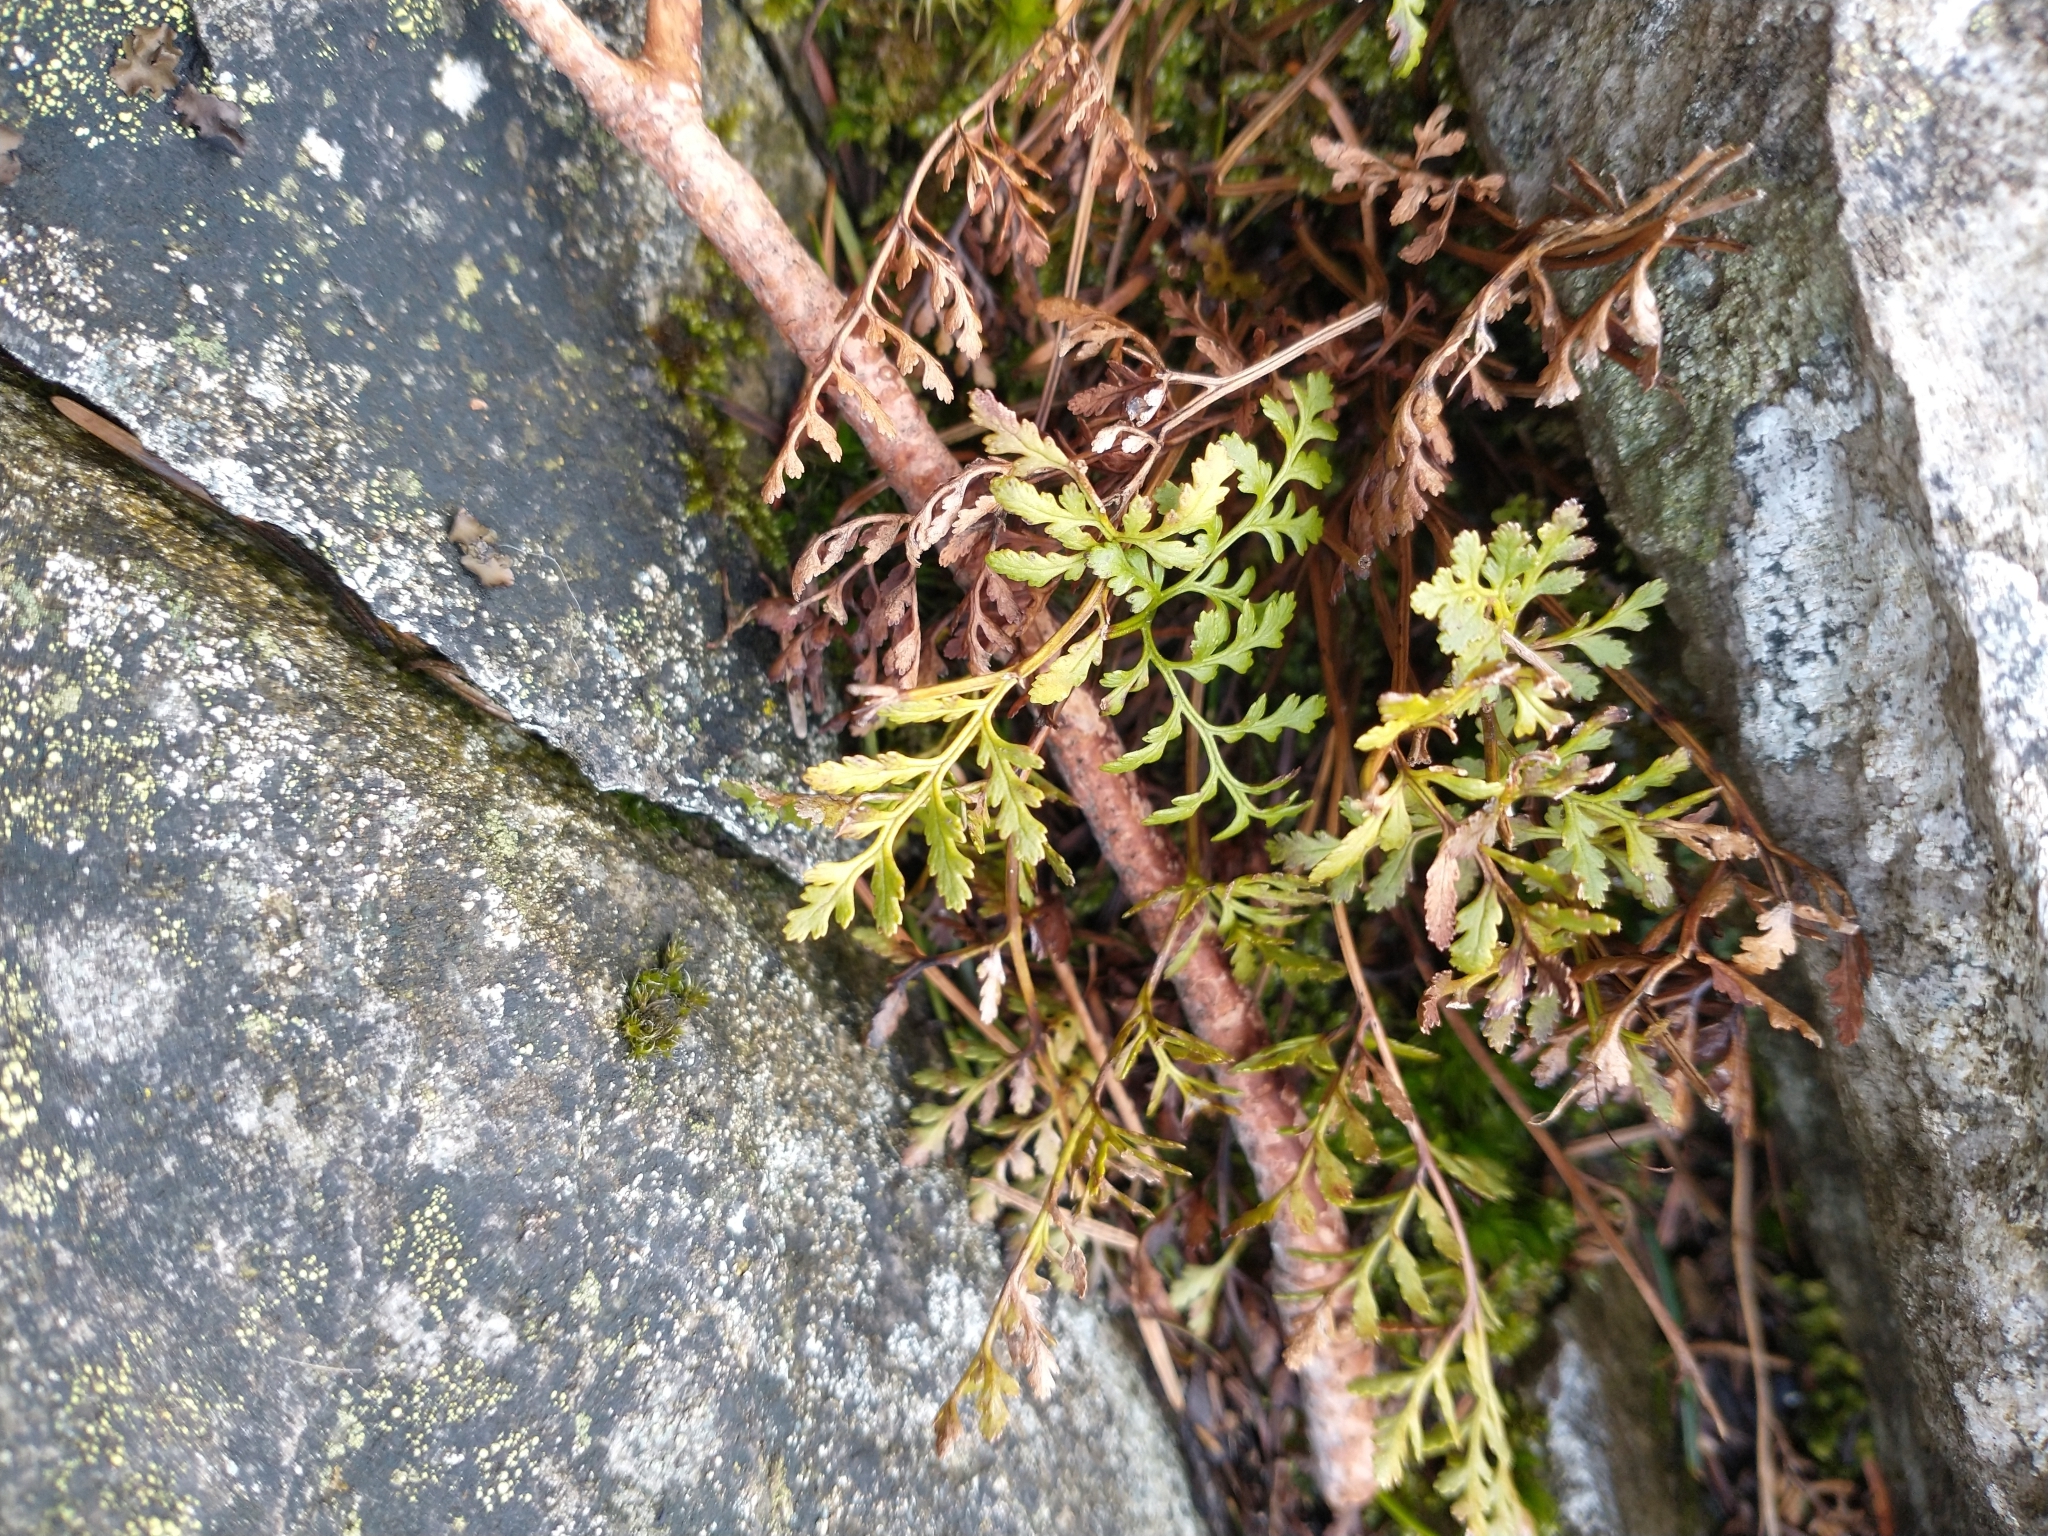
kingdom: Plantae
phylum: Tracheophyta
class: Polypodiopsida
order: Polypodiales
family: Pteridaceae
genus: Cryptogramma
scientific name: Cryptogramma acrostichoides
